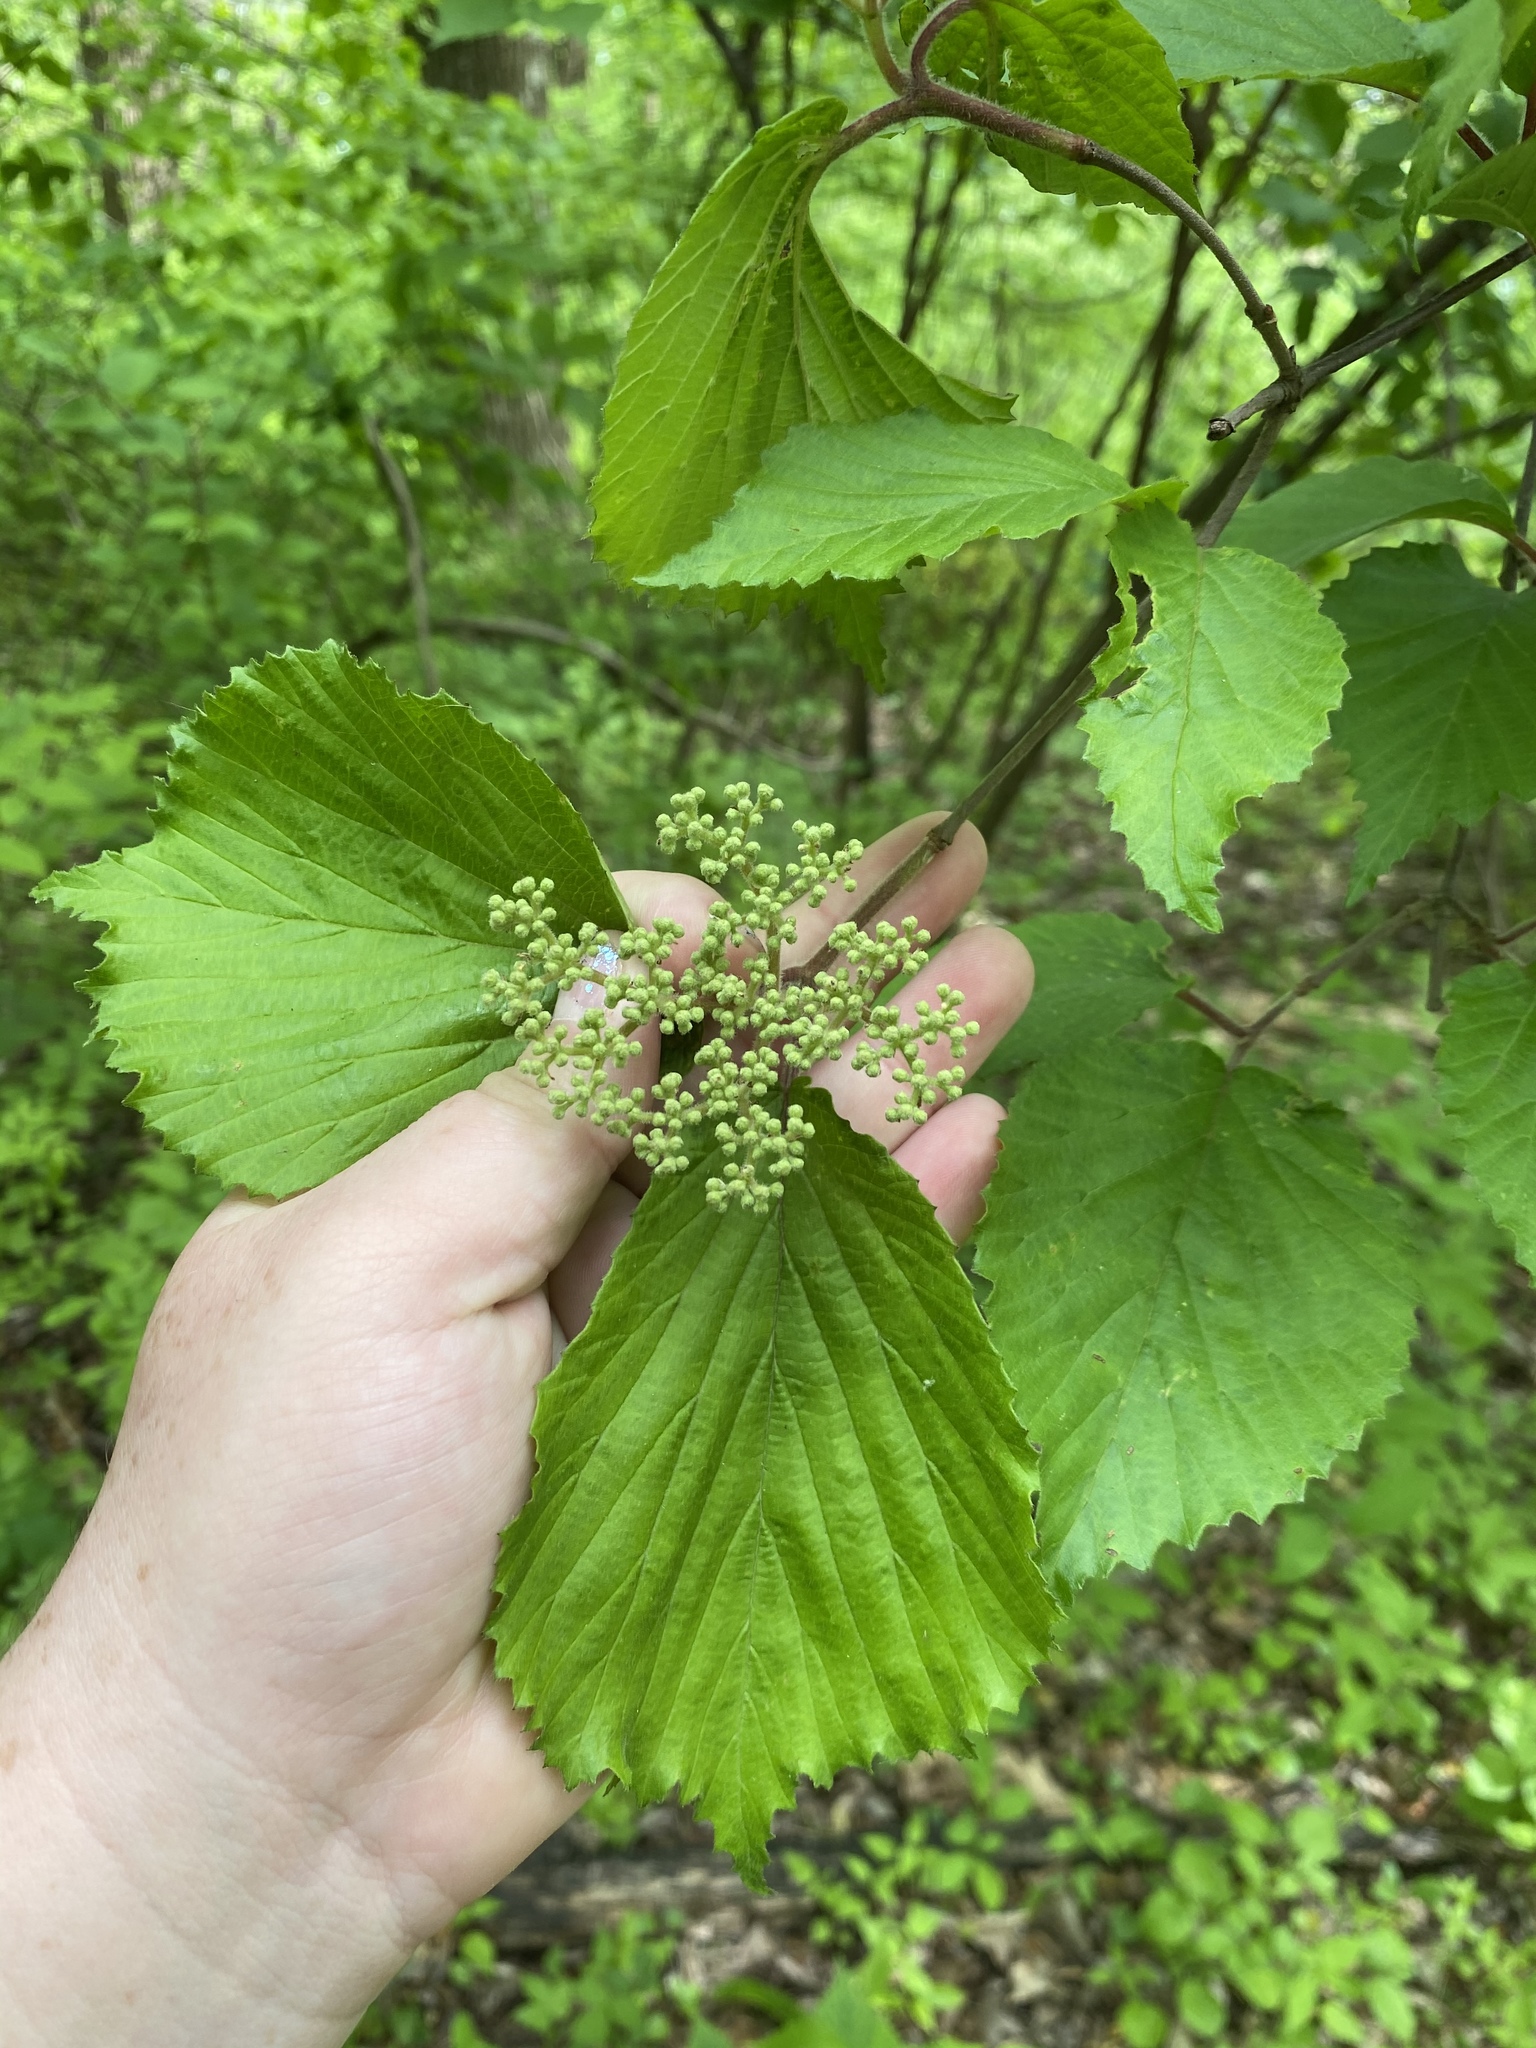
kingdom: Plantae
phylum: Tracheophyta
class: Magnoliopsida
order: Dipsacales
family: Viburnaceae
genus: Viburnum
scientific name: Viburnum dilatatum
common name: Linden arrowwood
